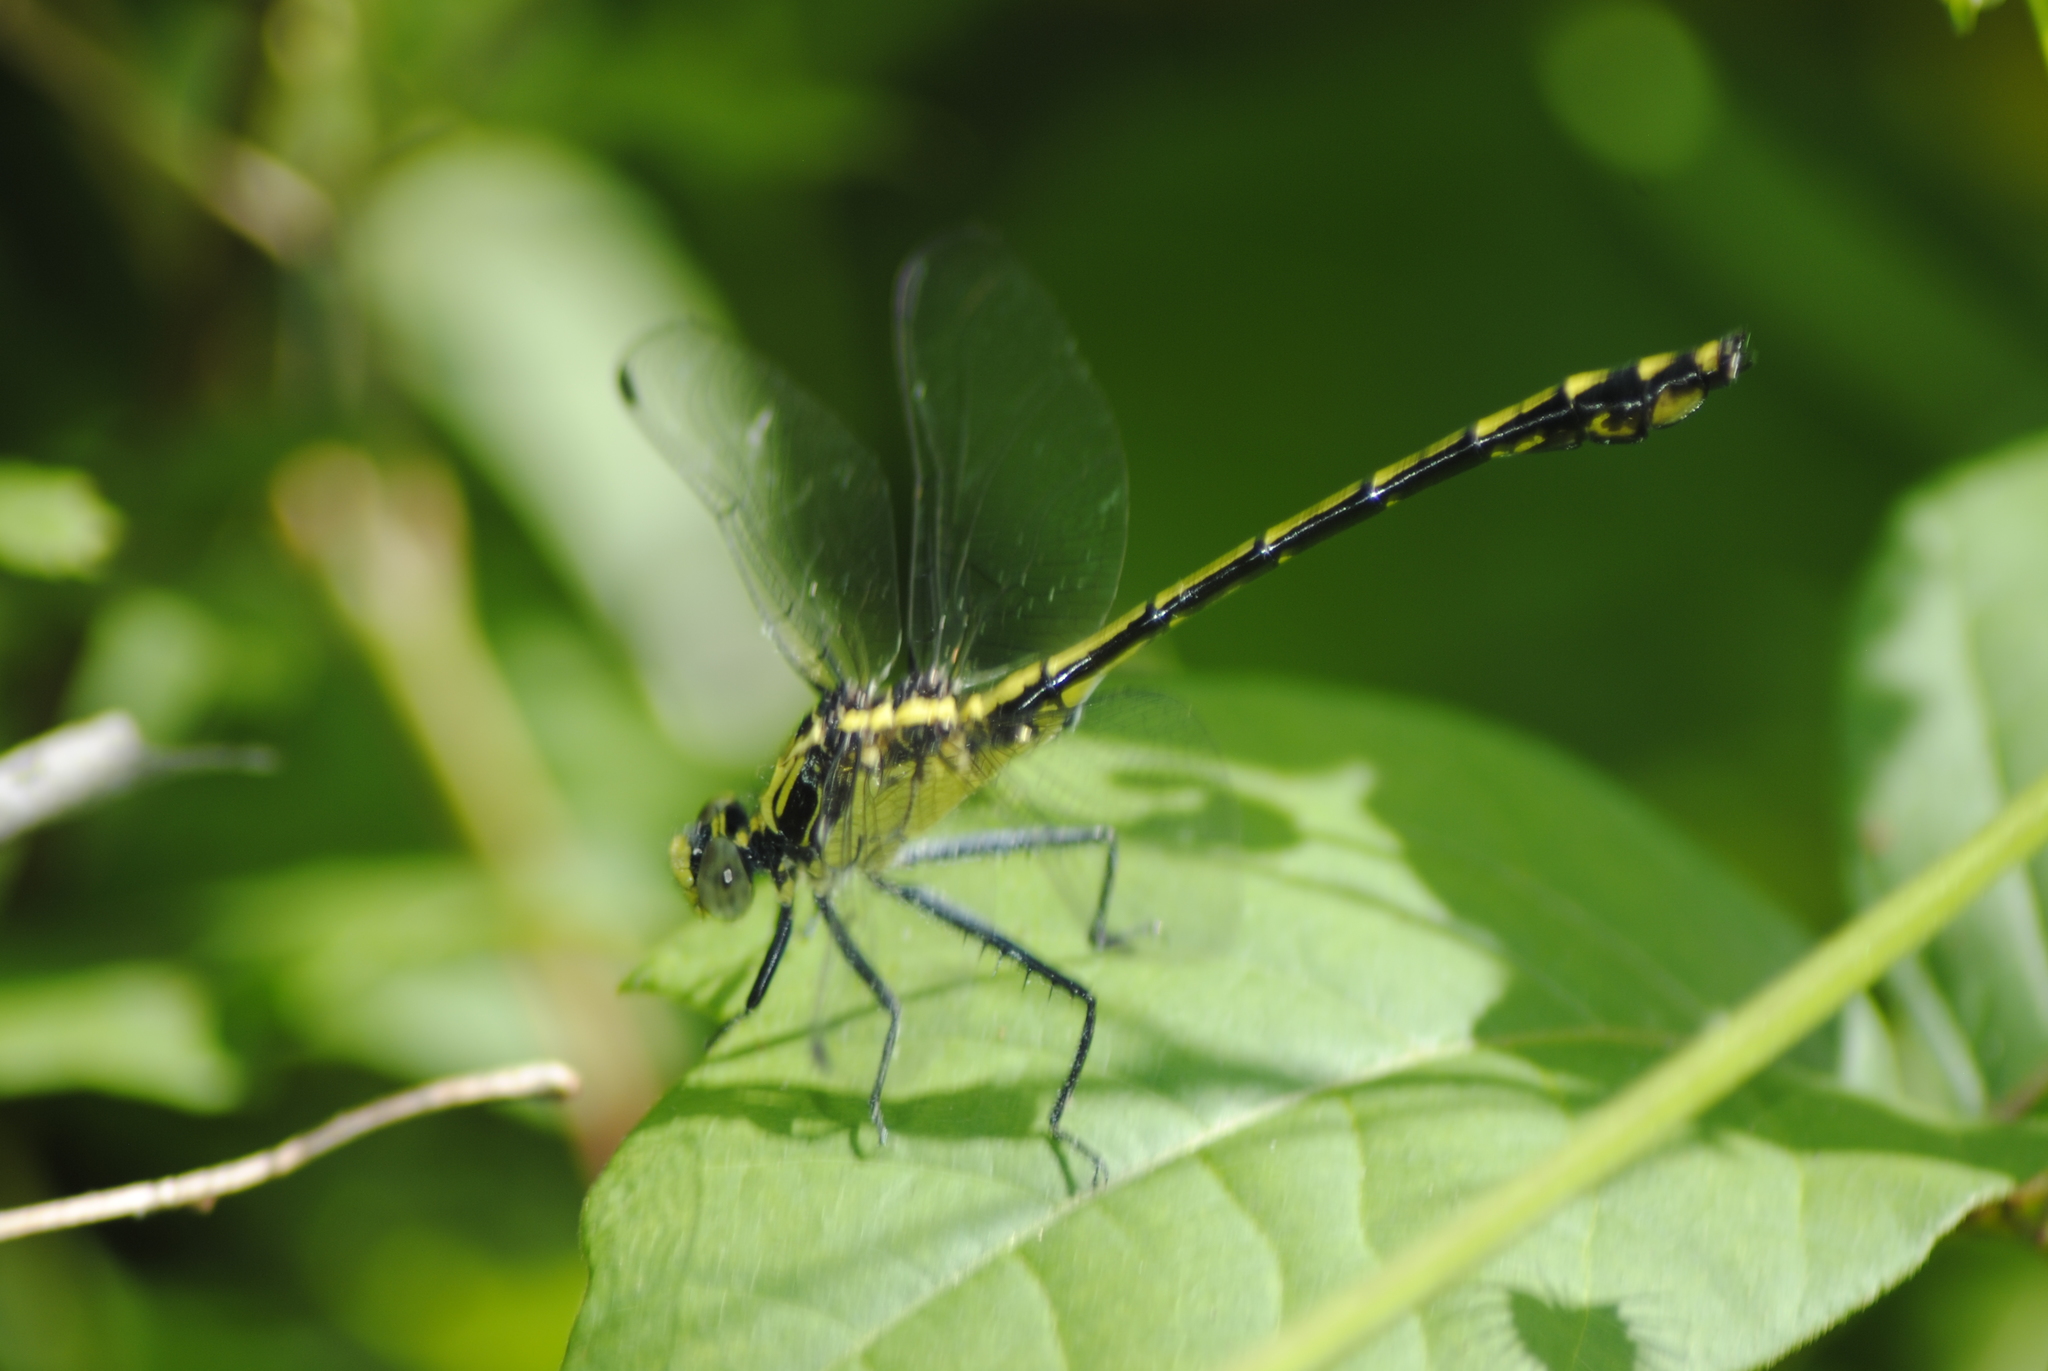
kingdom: Animalia
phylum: Arthropoda
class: Insecta
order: Odonata
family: Gomphidae
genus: Dromogomphus
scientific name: Dromogomphus spinosus
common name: Black-shouldered spinyleg
